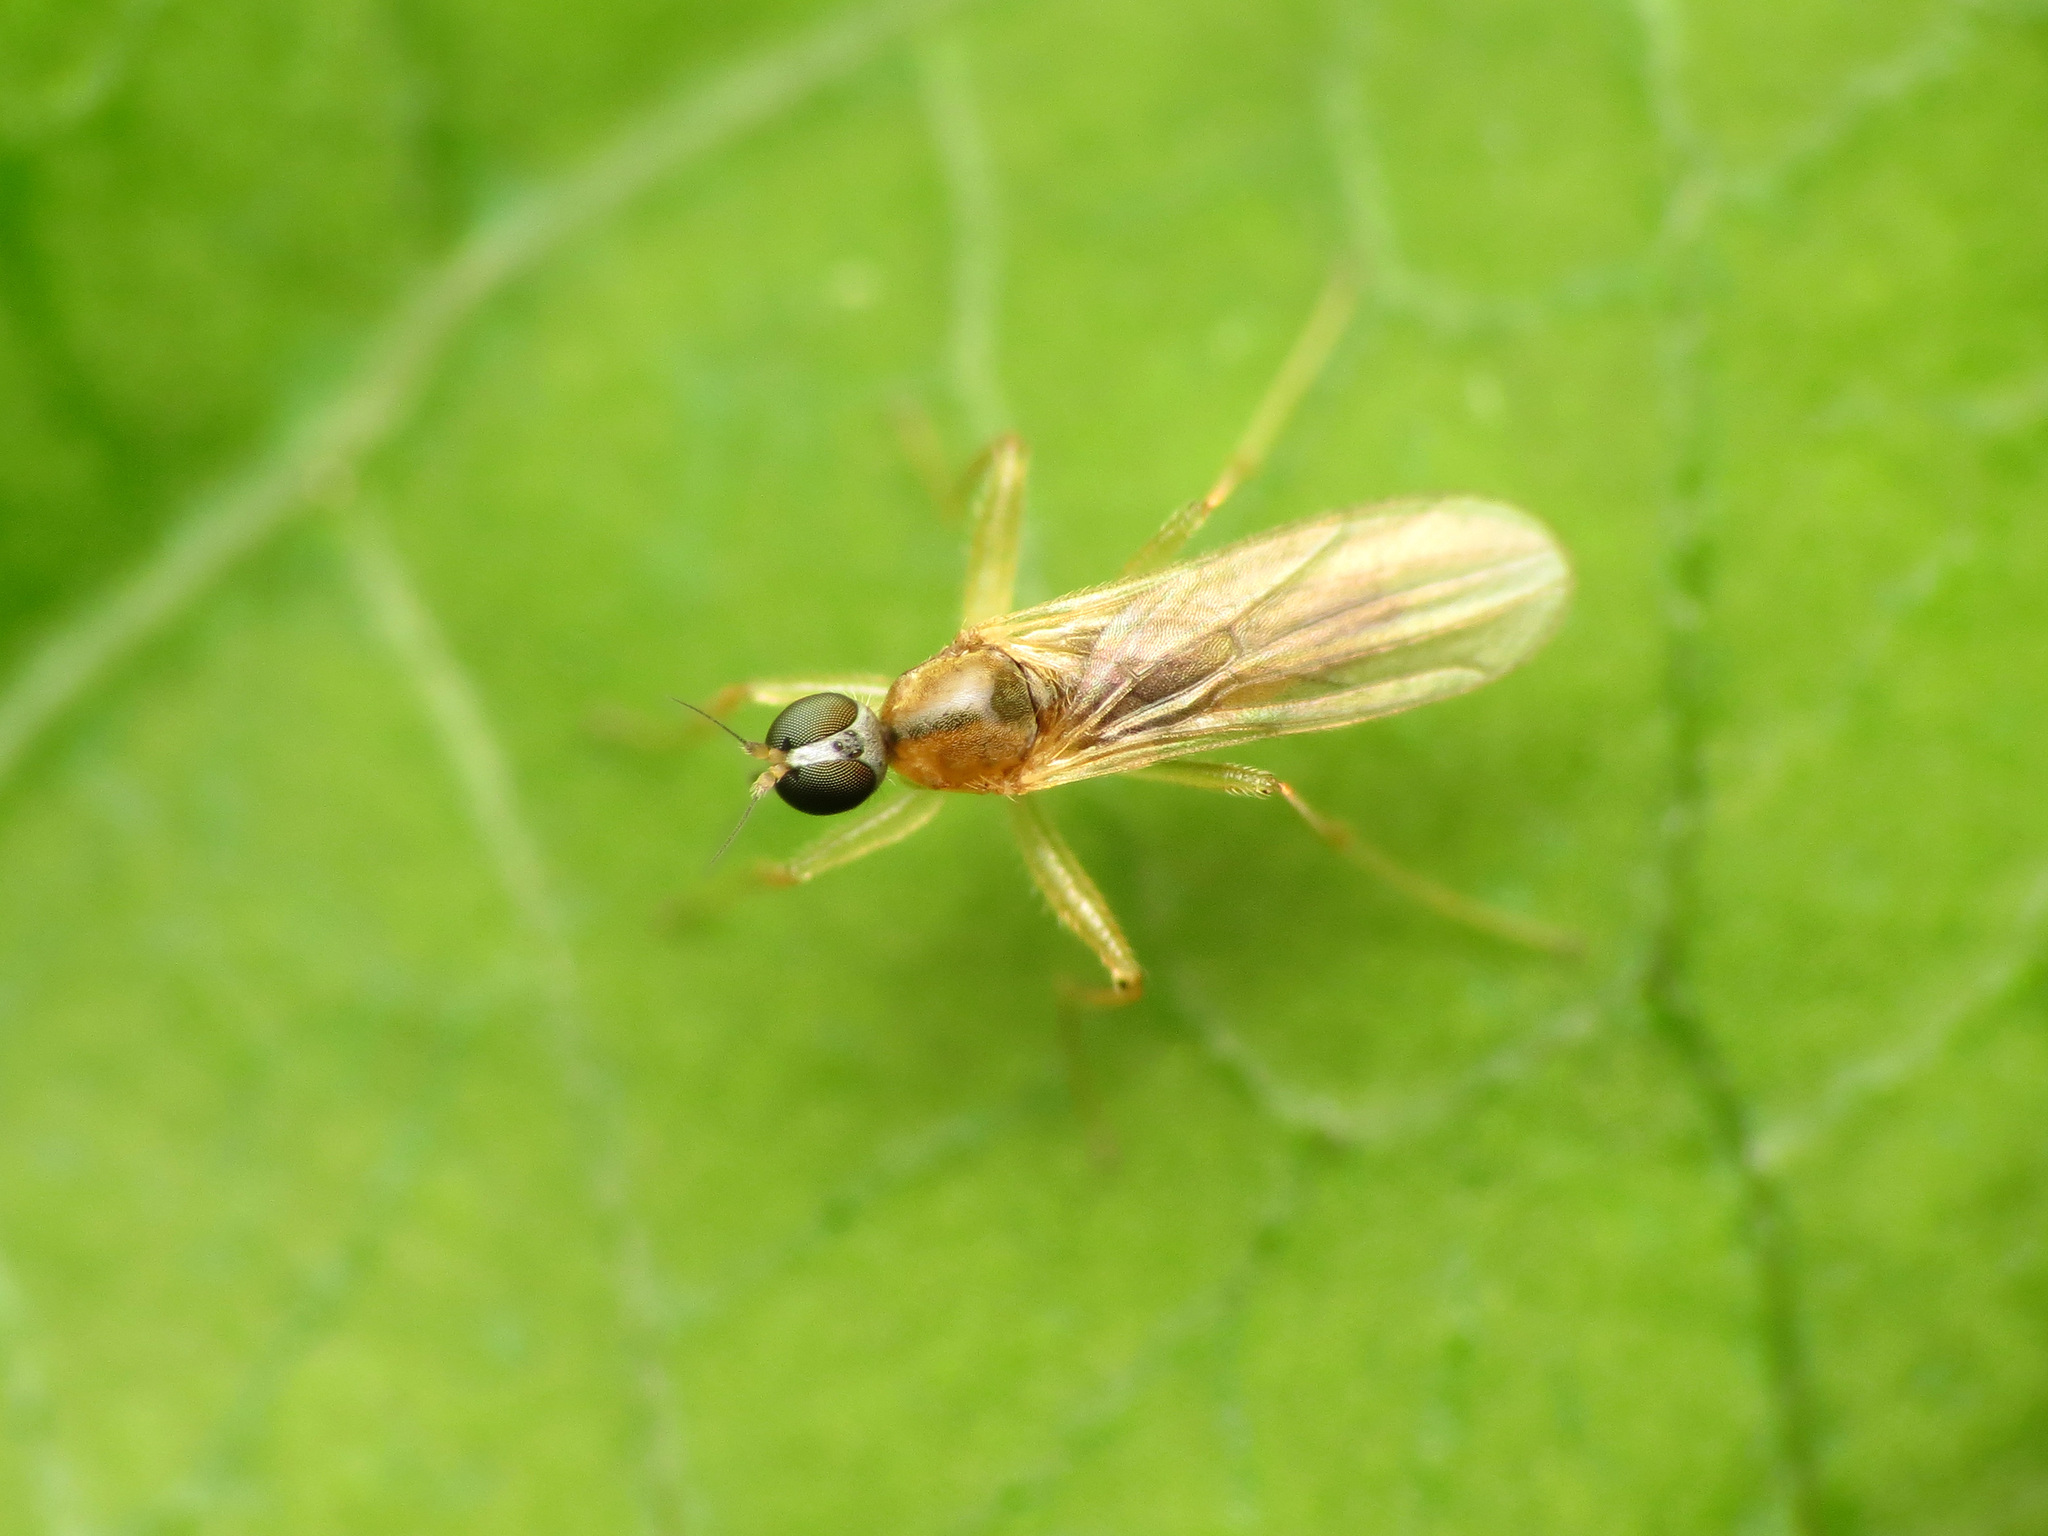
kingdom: Animalia
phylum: Arthropoda
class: Insecta
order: Diptera
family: Hybotidae
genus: Platypalpus
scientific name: Platypalpus rubefactus
